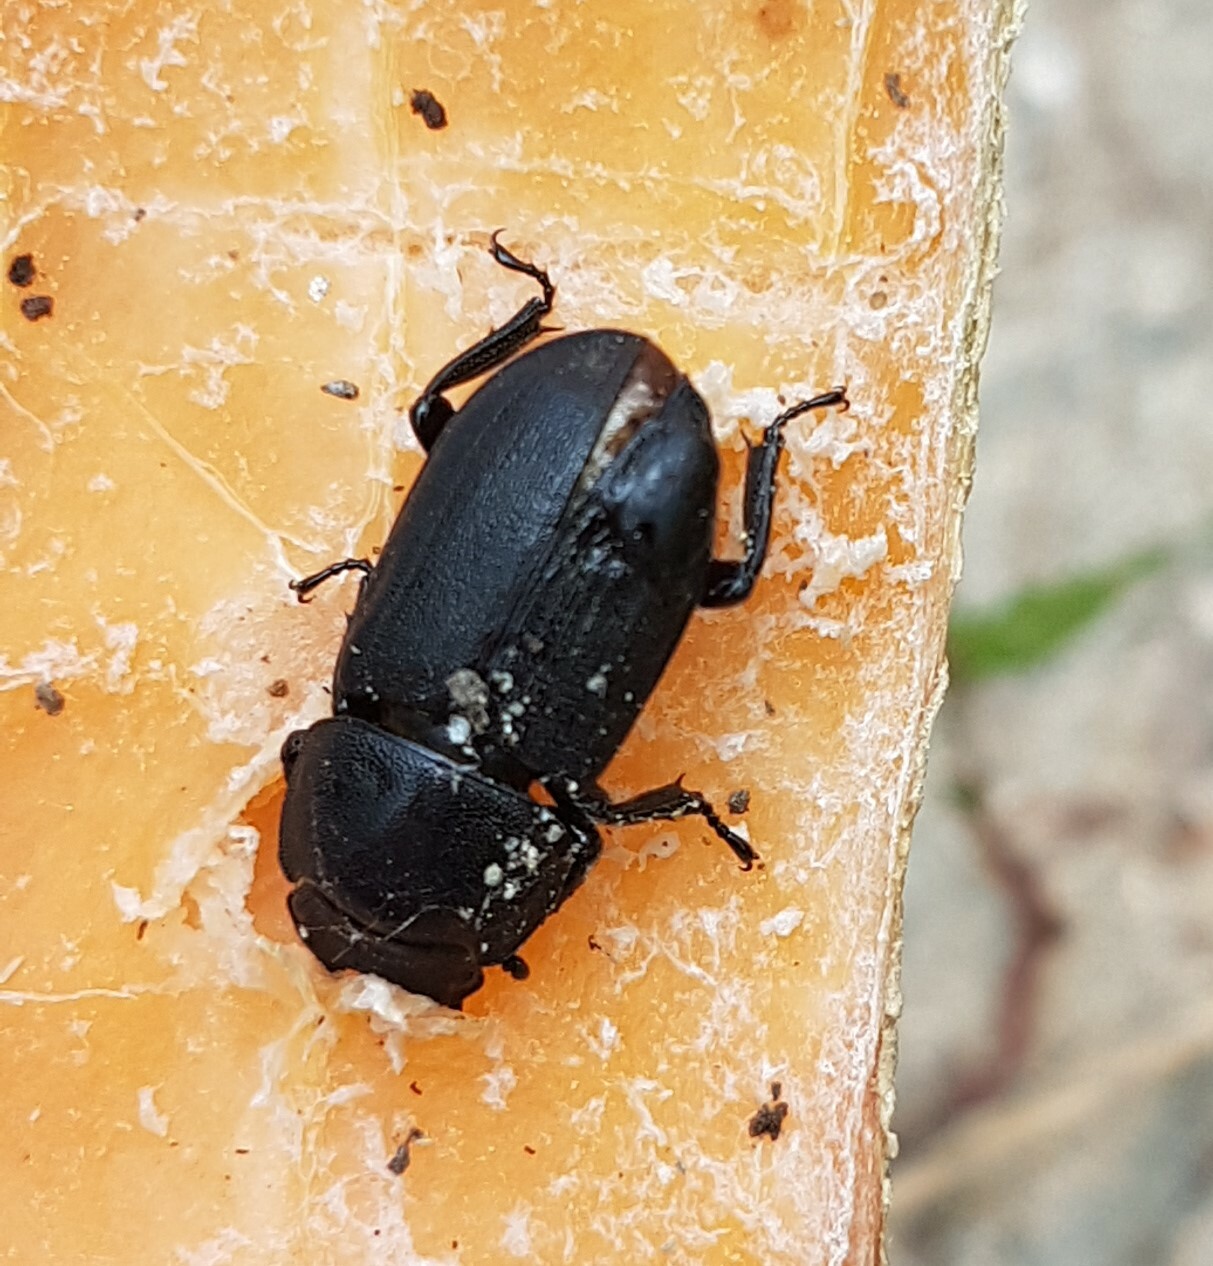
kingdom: Animalia
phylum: Arthropoda
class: Insecta
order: Coleoptera
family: Lucanidae
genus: Dorcus
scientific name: Dorcus parallelipipedus
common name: Lesser stag beetle
